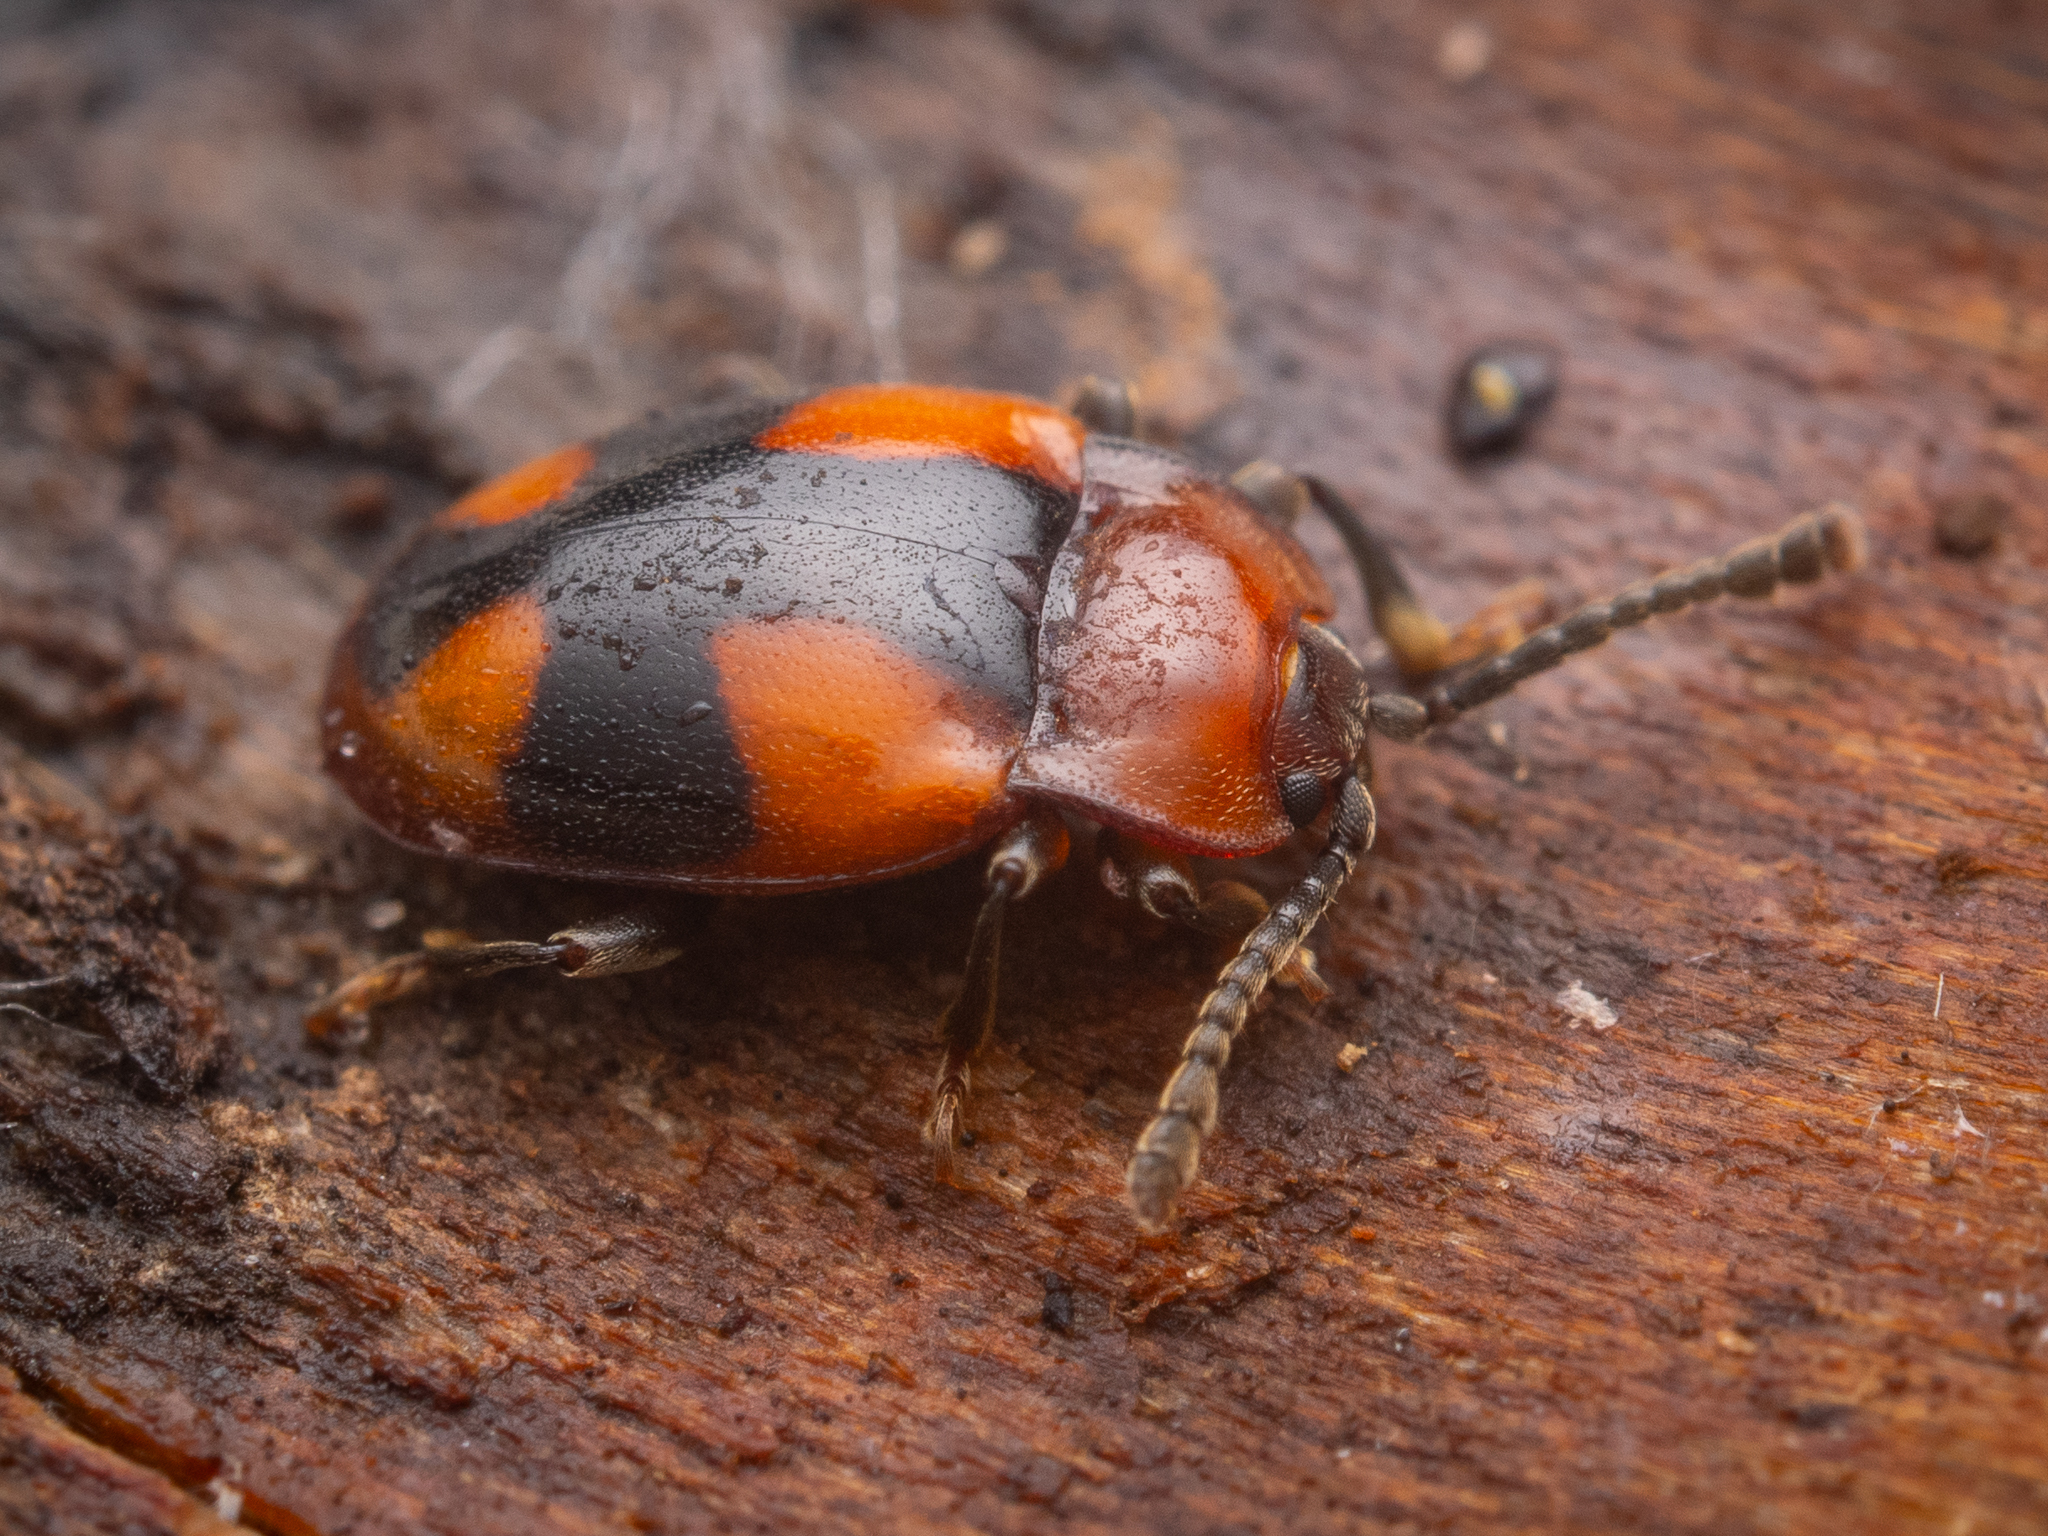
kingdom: Animalia
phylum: Arthropoda
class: Insecta
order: Coleoptera
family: Endomychidae
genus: Mycetina
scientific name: Mycetina cruciata
